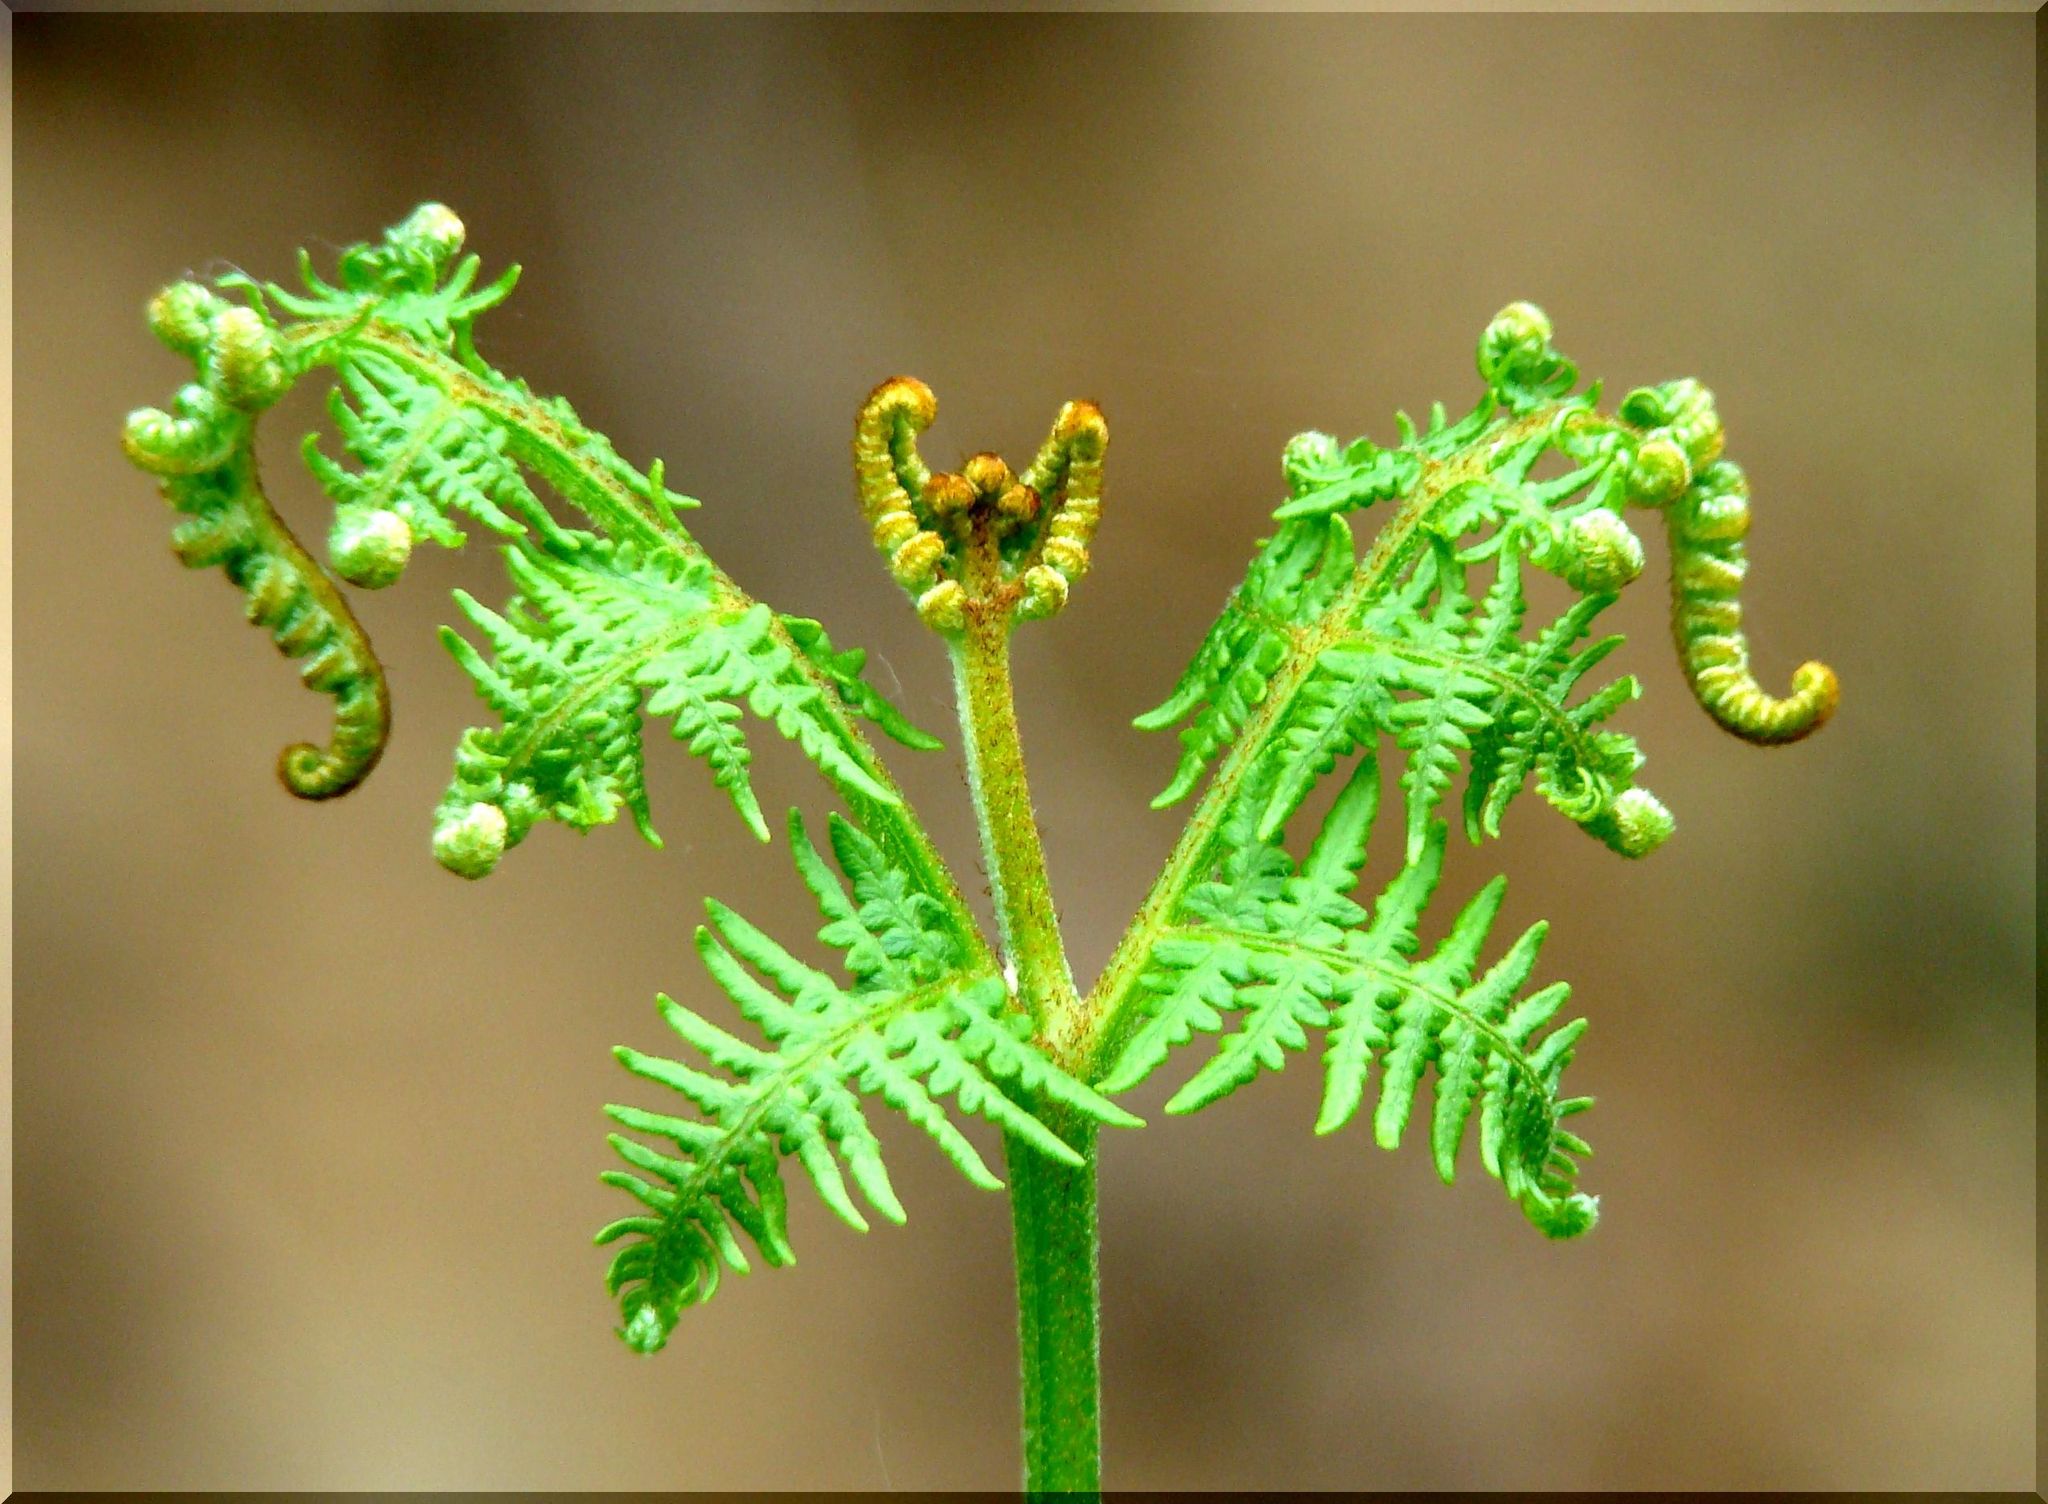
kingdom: Plantae
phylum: Tracheophyta
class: Polypodiopsida
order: Polypodiales
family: Dennstaedtiaceae
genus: Pteridium
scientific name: Pteridium aquilinum
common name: Bracken
